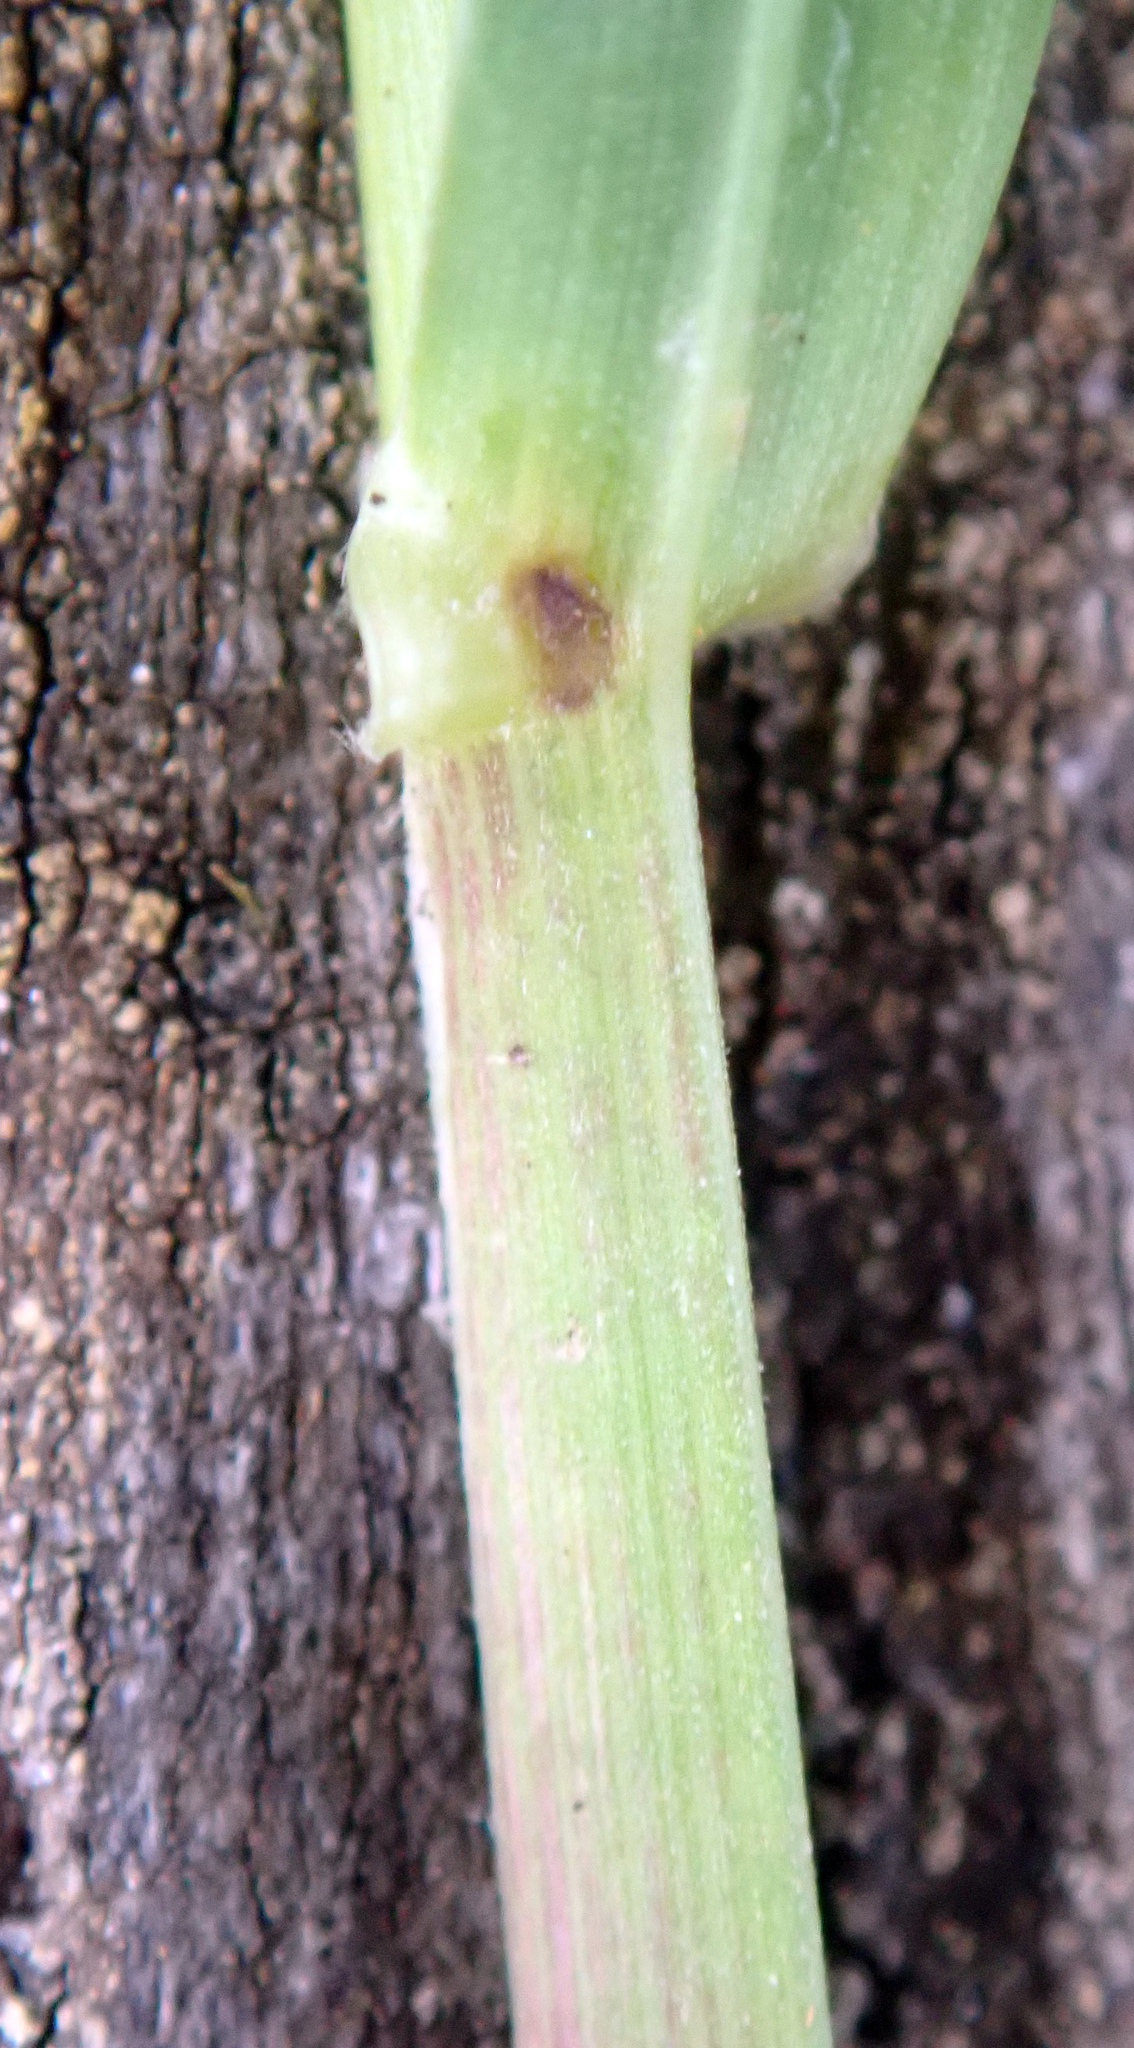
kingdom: Plantae
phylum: Tracheophyta
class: Liliopsida
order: Poales
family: Poaceae
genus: Poa
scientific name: Poa pratensis
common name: Kentucky bluegrass
